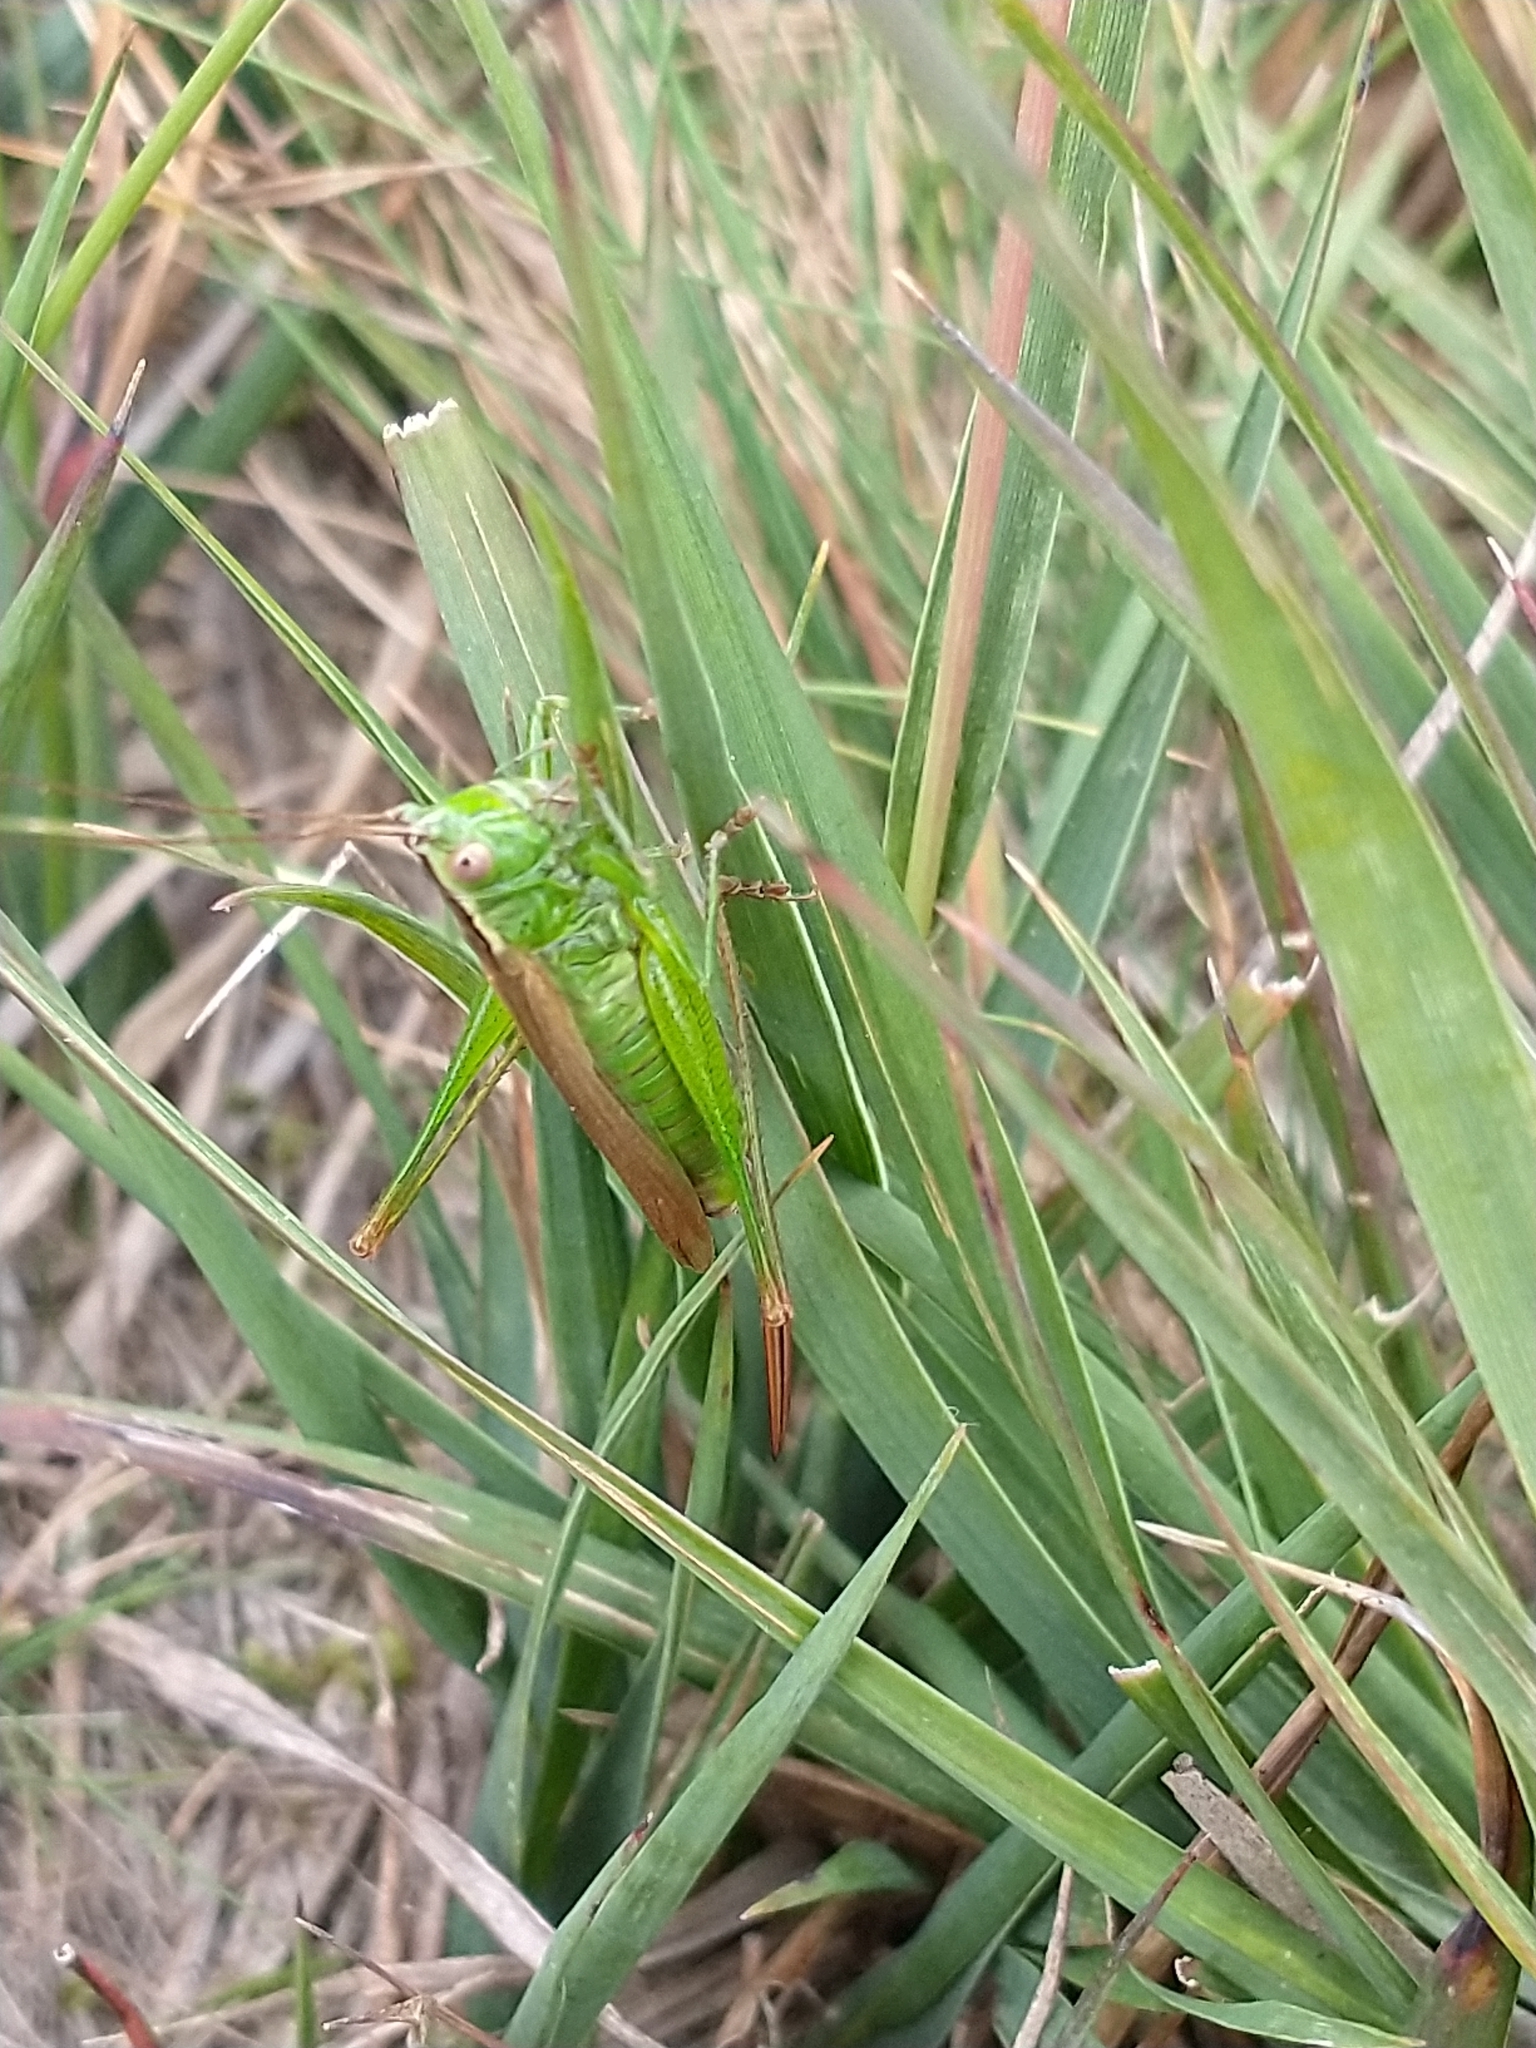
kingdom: Animalia
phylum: Arthropoda
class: Insecta
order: Orthoptera
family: Tettigoniidae
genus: Conocephalus
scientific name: Conocephalus fuscus
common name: Long-winged conehead
